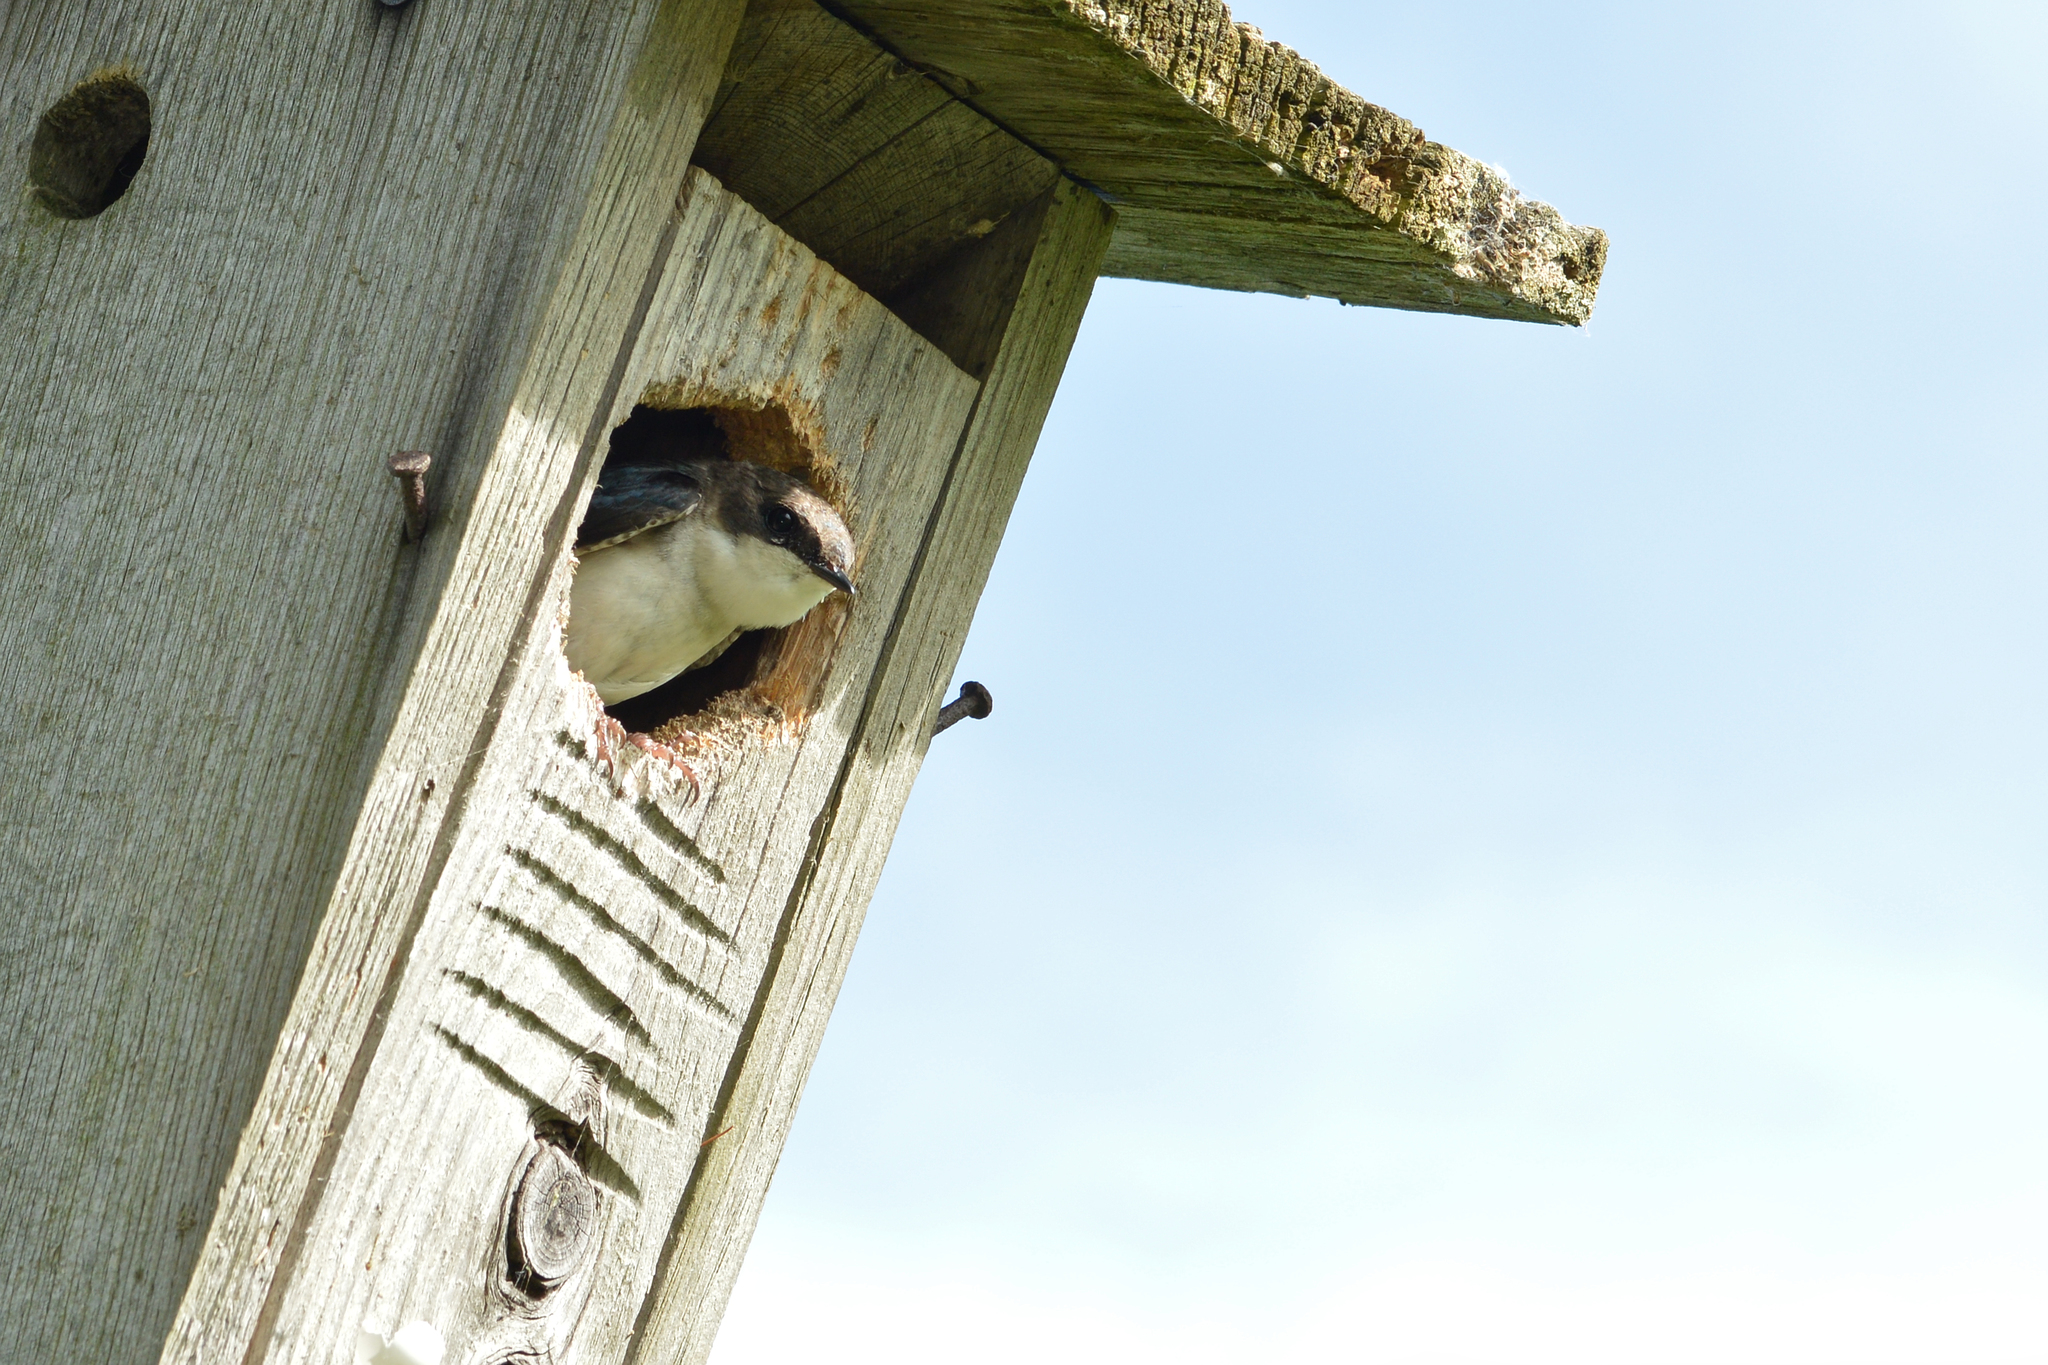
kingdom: Animalia
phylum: Chordata
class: Aves
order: Passeriformes
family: Hirundinidae
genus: Tachycineta
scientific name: Tachycineta bicolor
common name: Tree swallow
